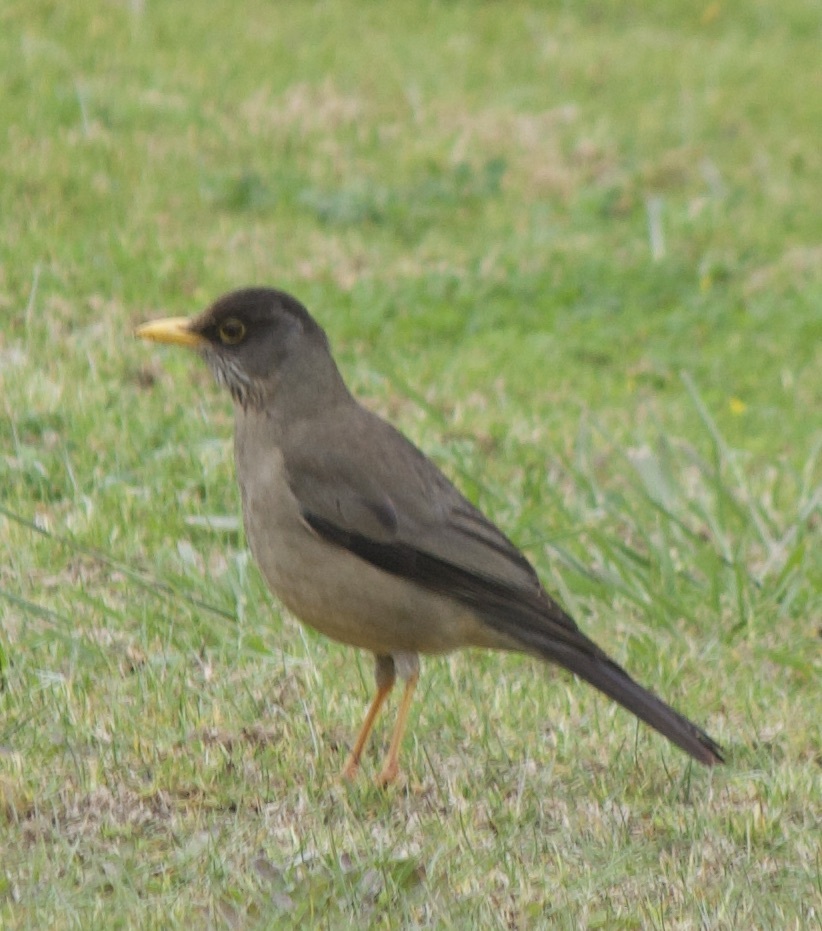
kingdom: Animalia
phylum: Chordata
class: Aves
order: Passeriformes
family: Turdidae
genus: Turdus
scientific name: Turdus falcklandii
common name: Austral thrush
